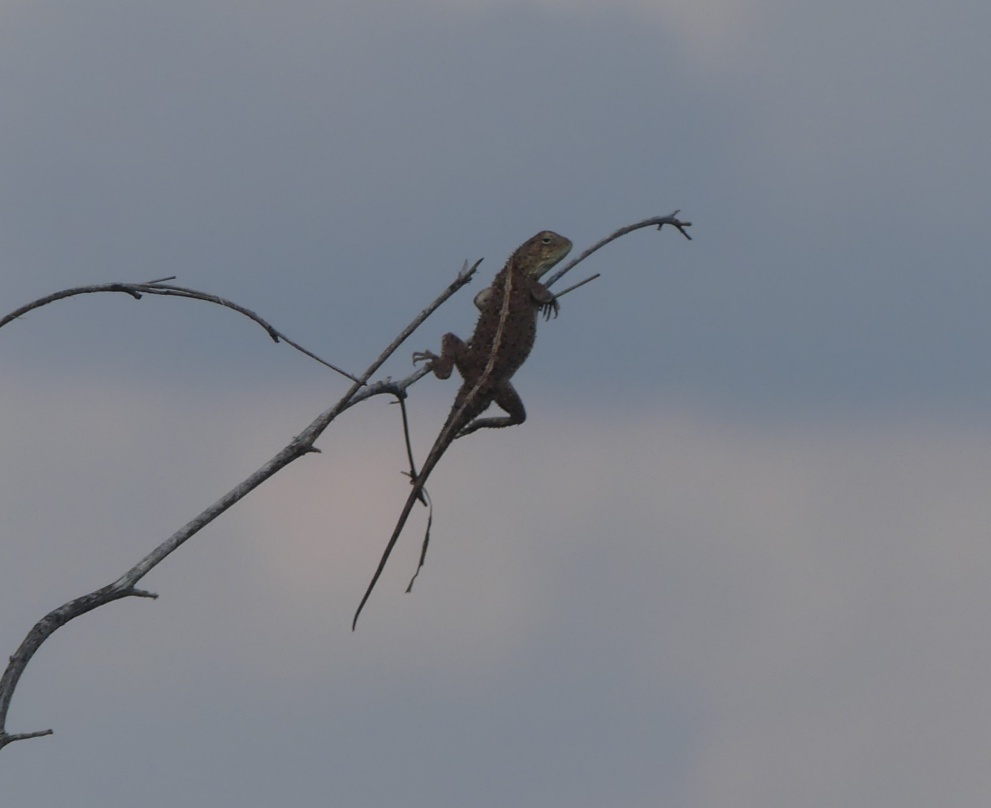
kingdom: Animalia
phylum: Chordata
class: Squamata
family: Agamidae
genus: Agama
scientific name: Agama aculeata
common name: Common ground agama
